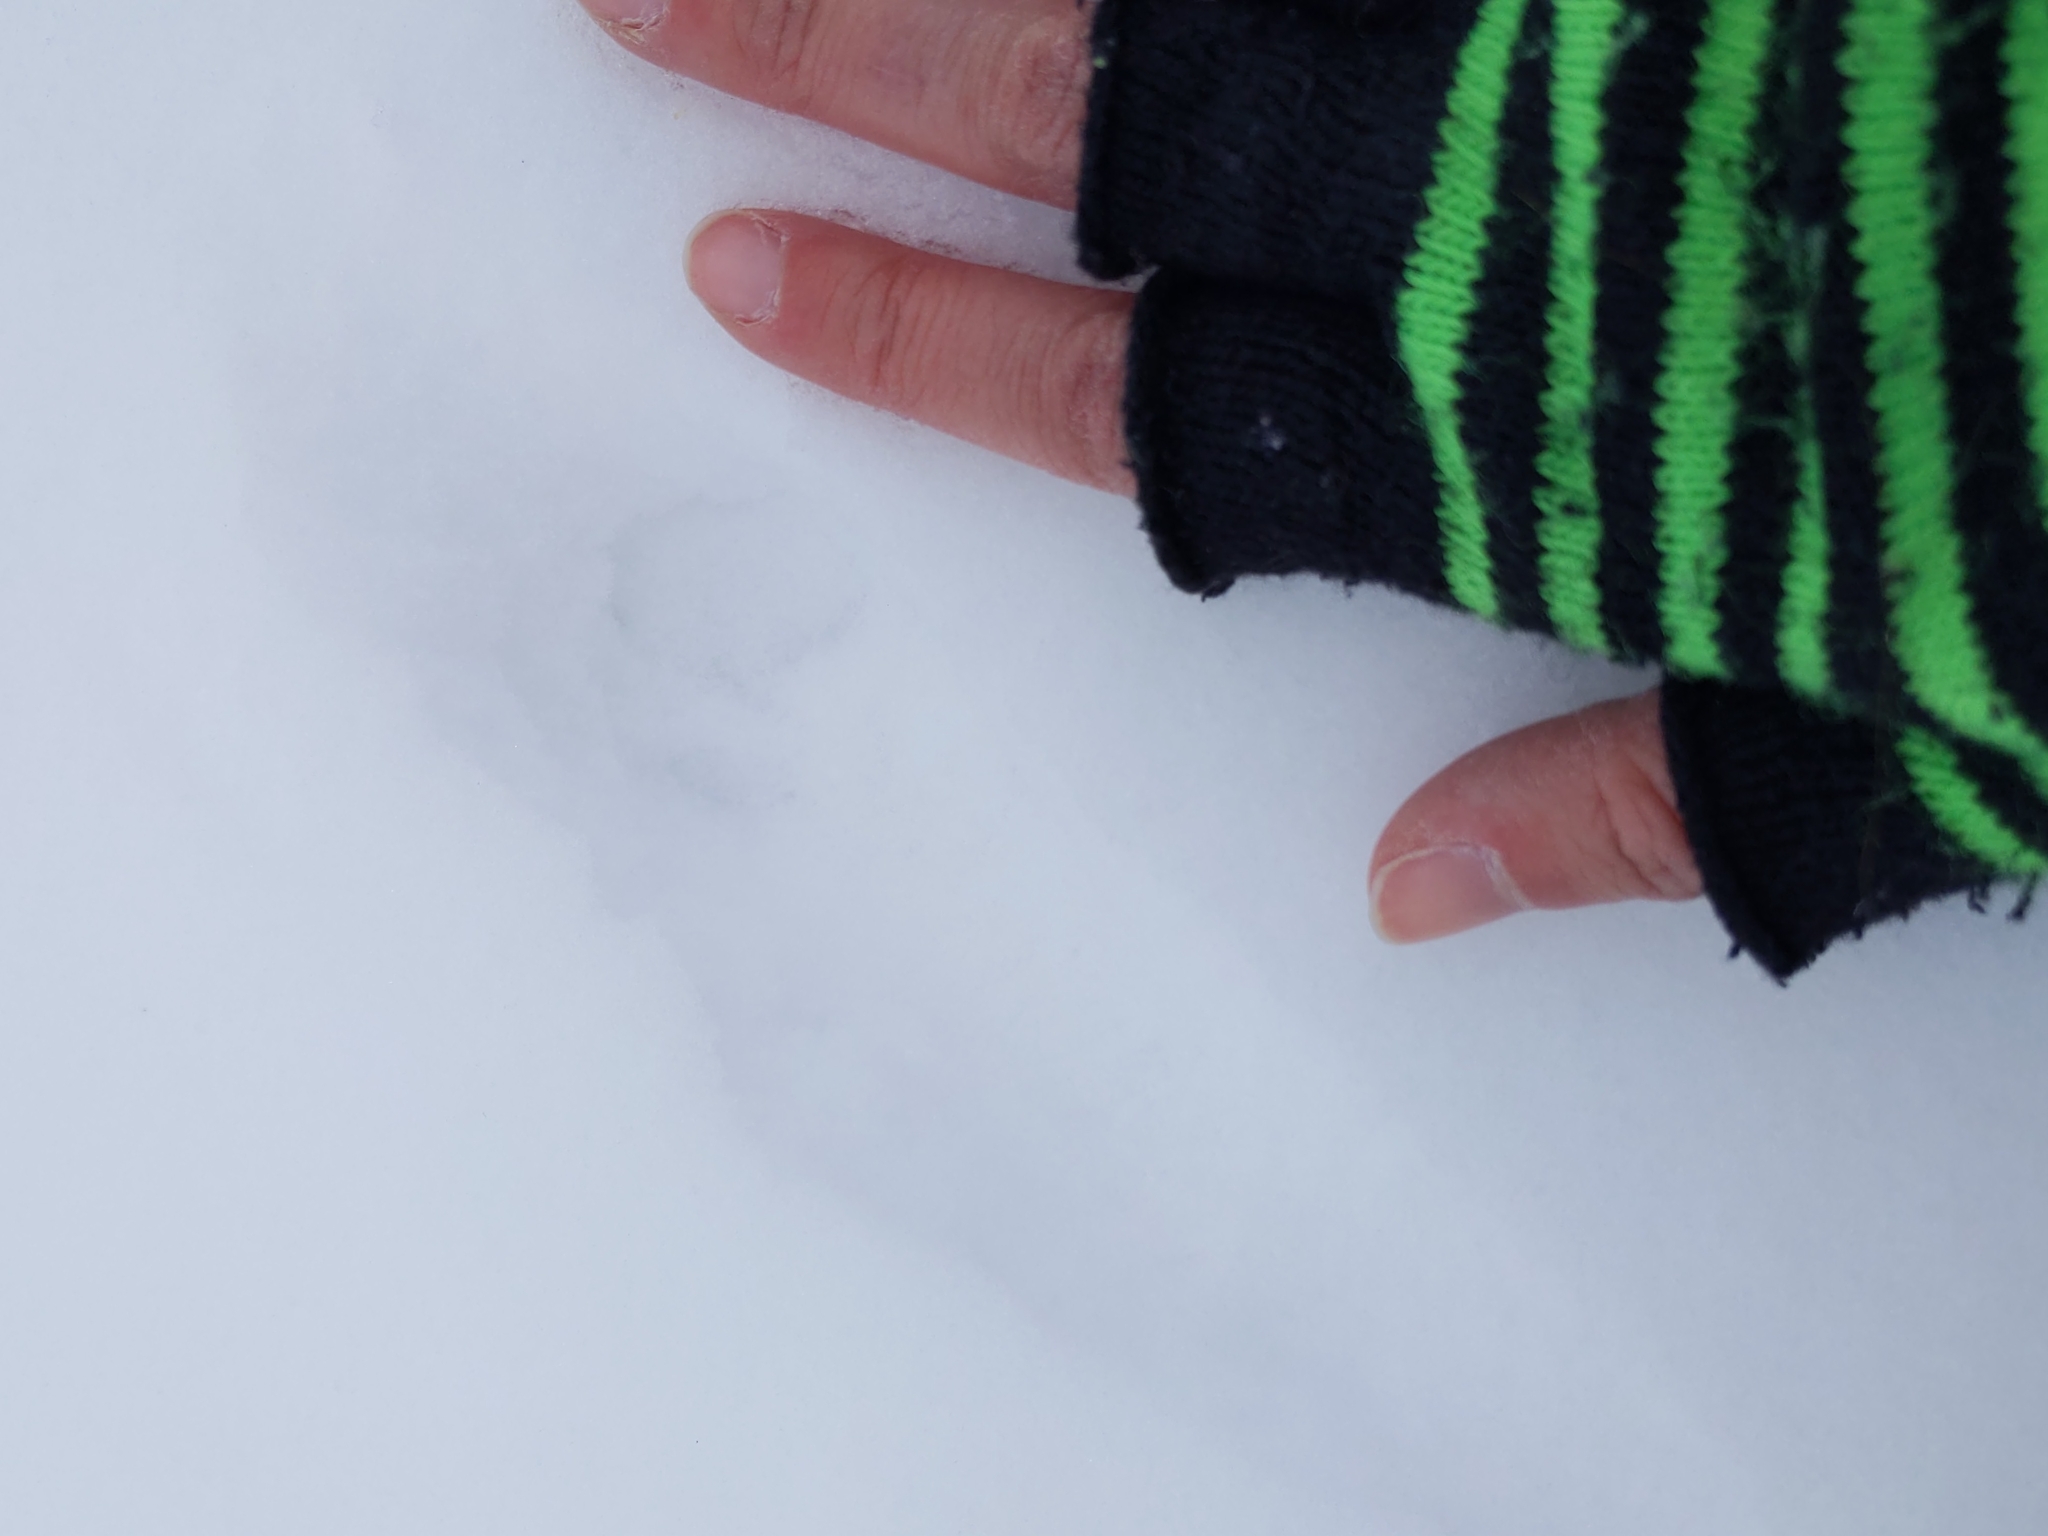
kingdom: Animalia
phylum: Chordata
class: Mammalia
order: Carnivora
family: Felidae
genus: Felis
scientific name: Felis catus
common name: Domestic cat
